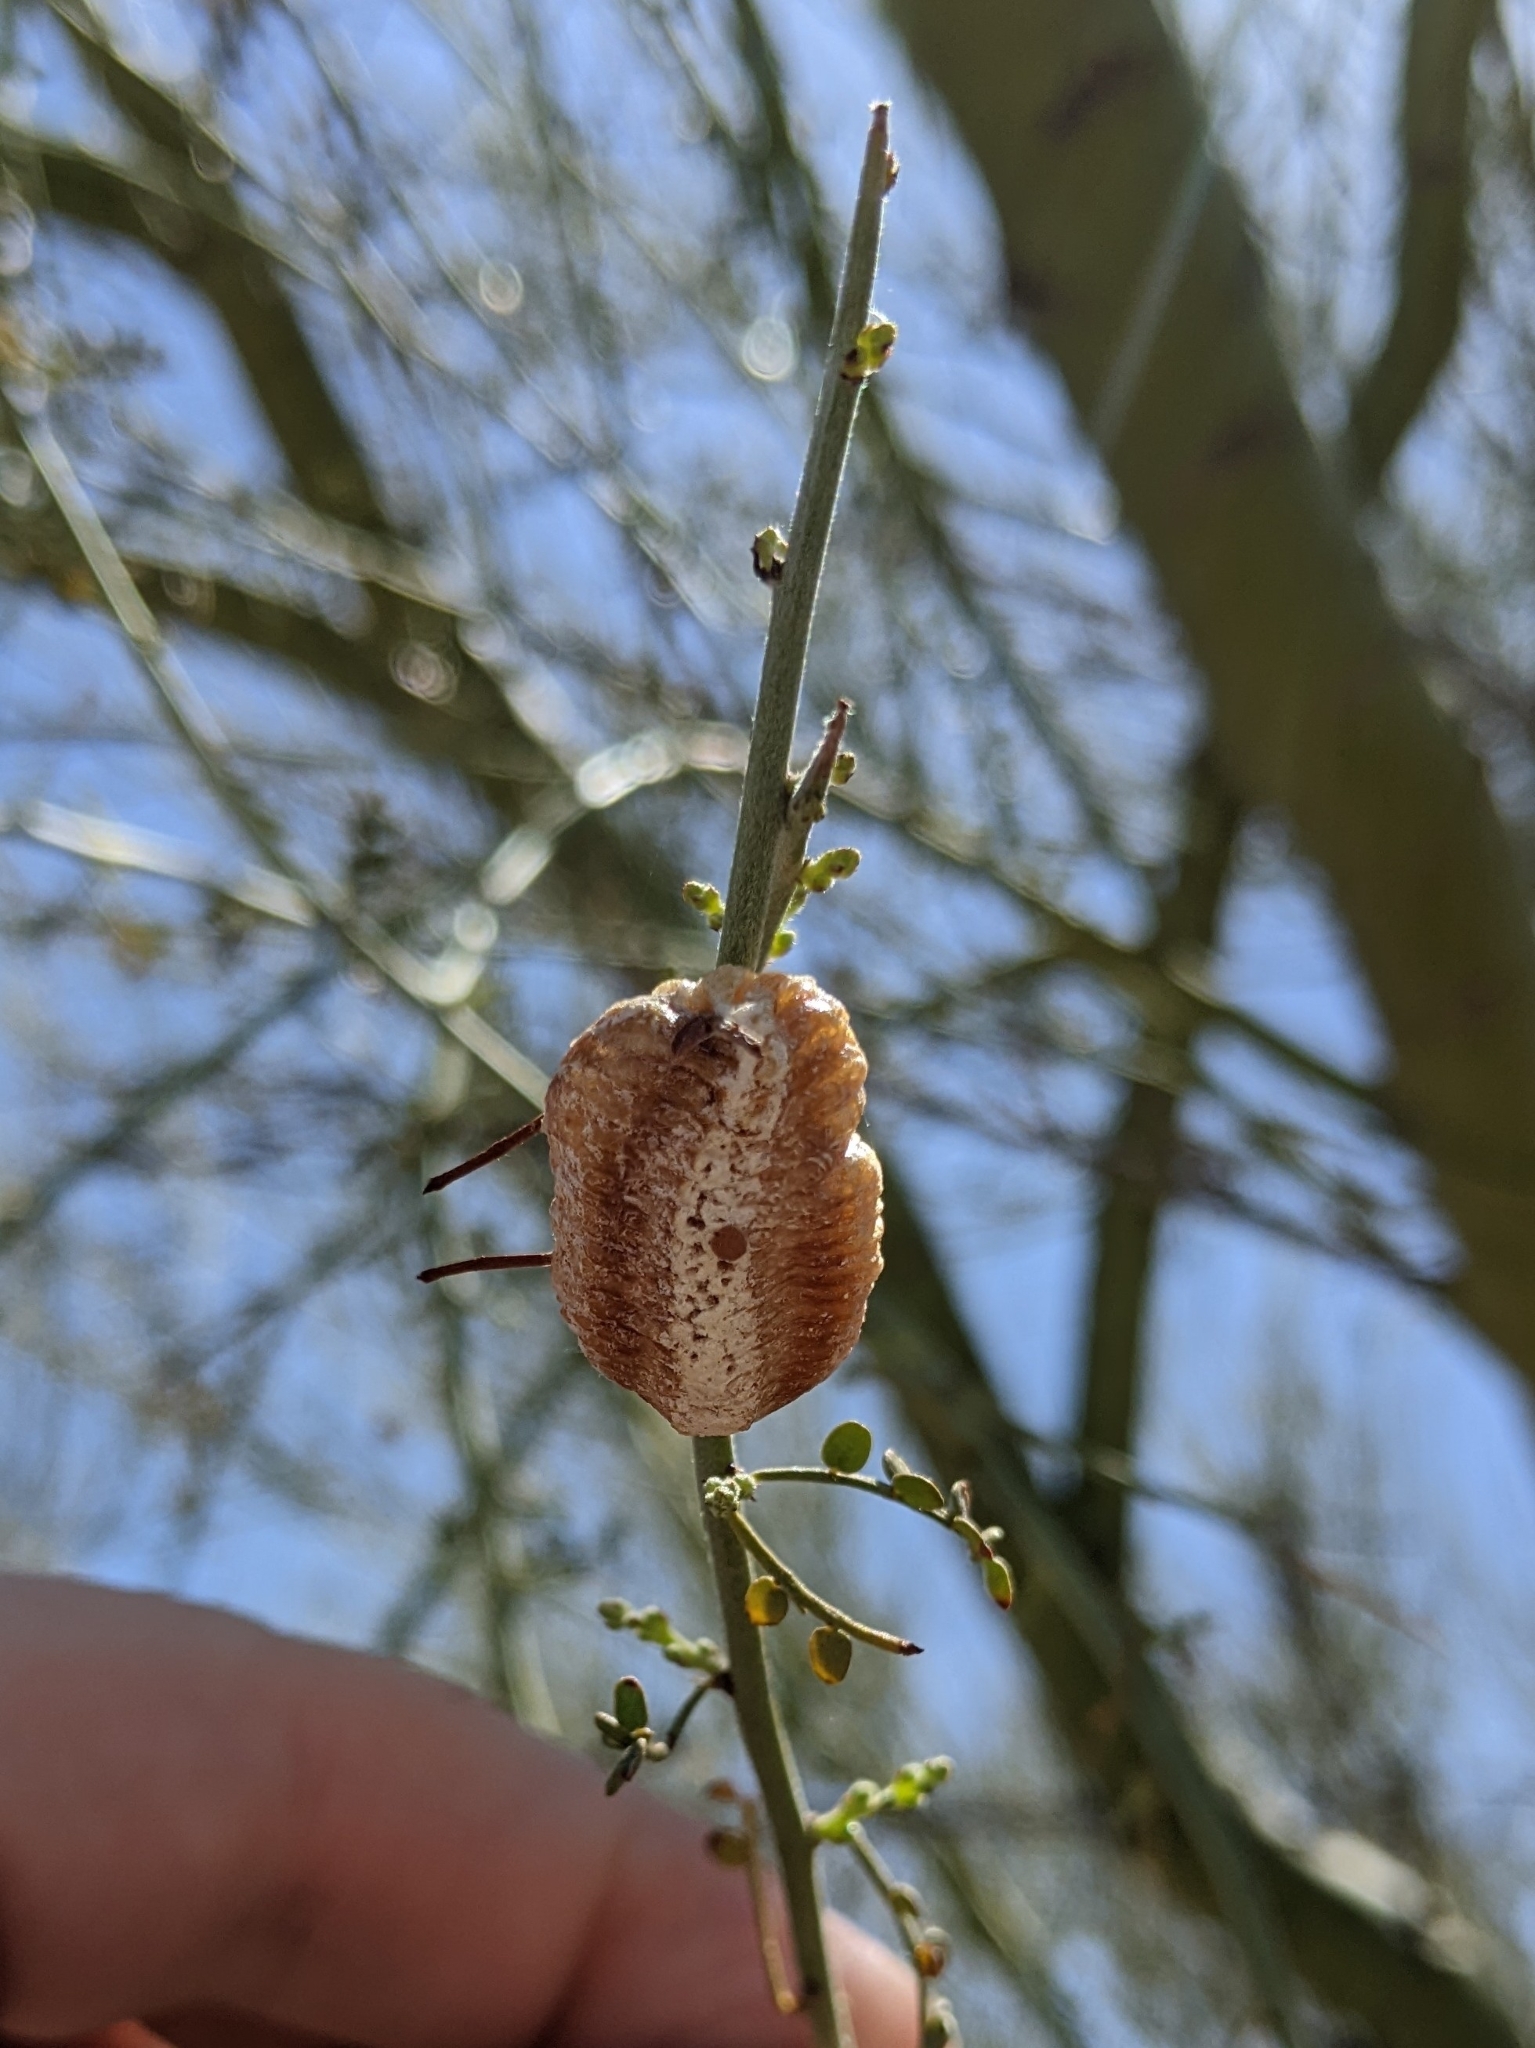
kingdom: Animalia
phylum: Arthropoda
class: Insecta
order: Mantodea
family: Mantidae
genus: Stagmomantis
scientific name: Stagmomantis limbata
